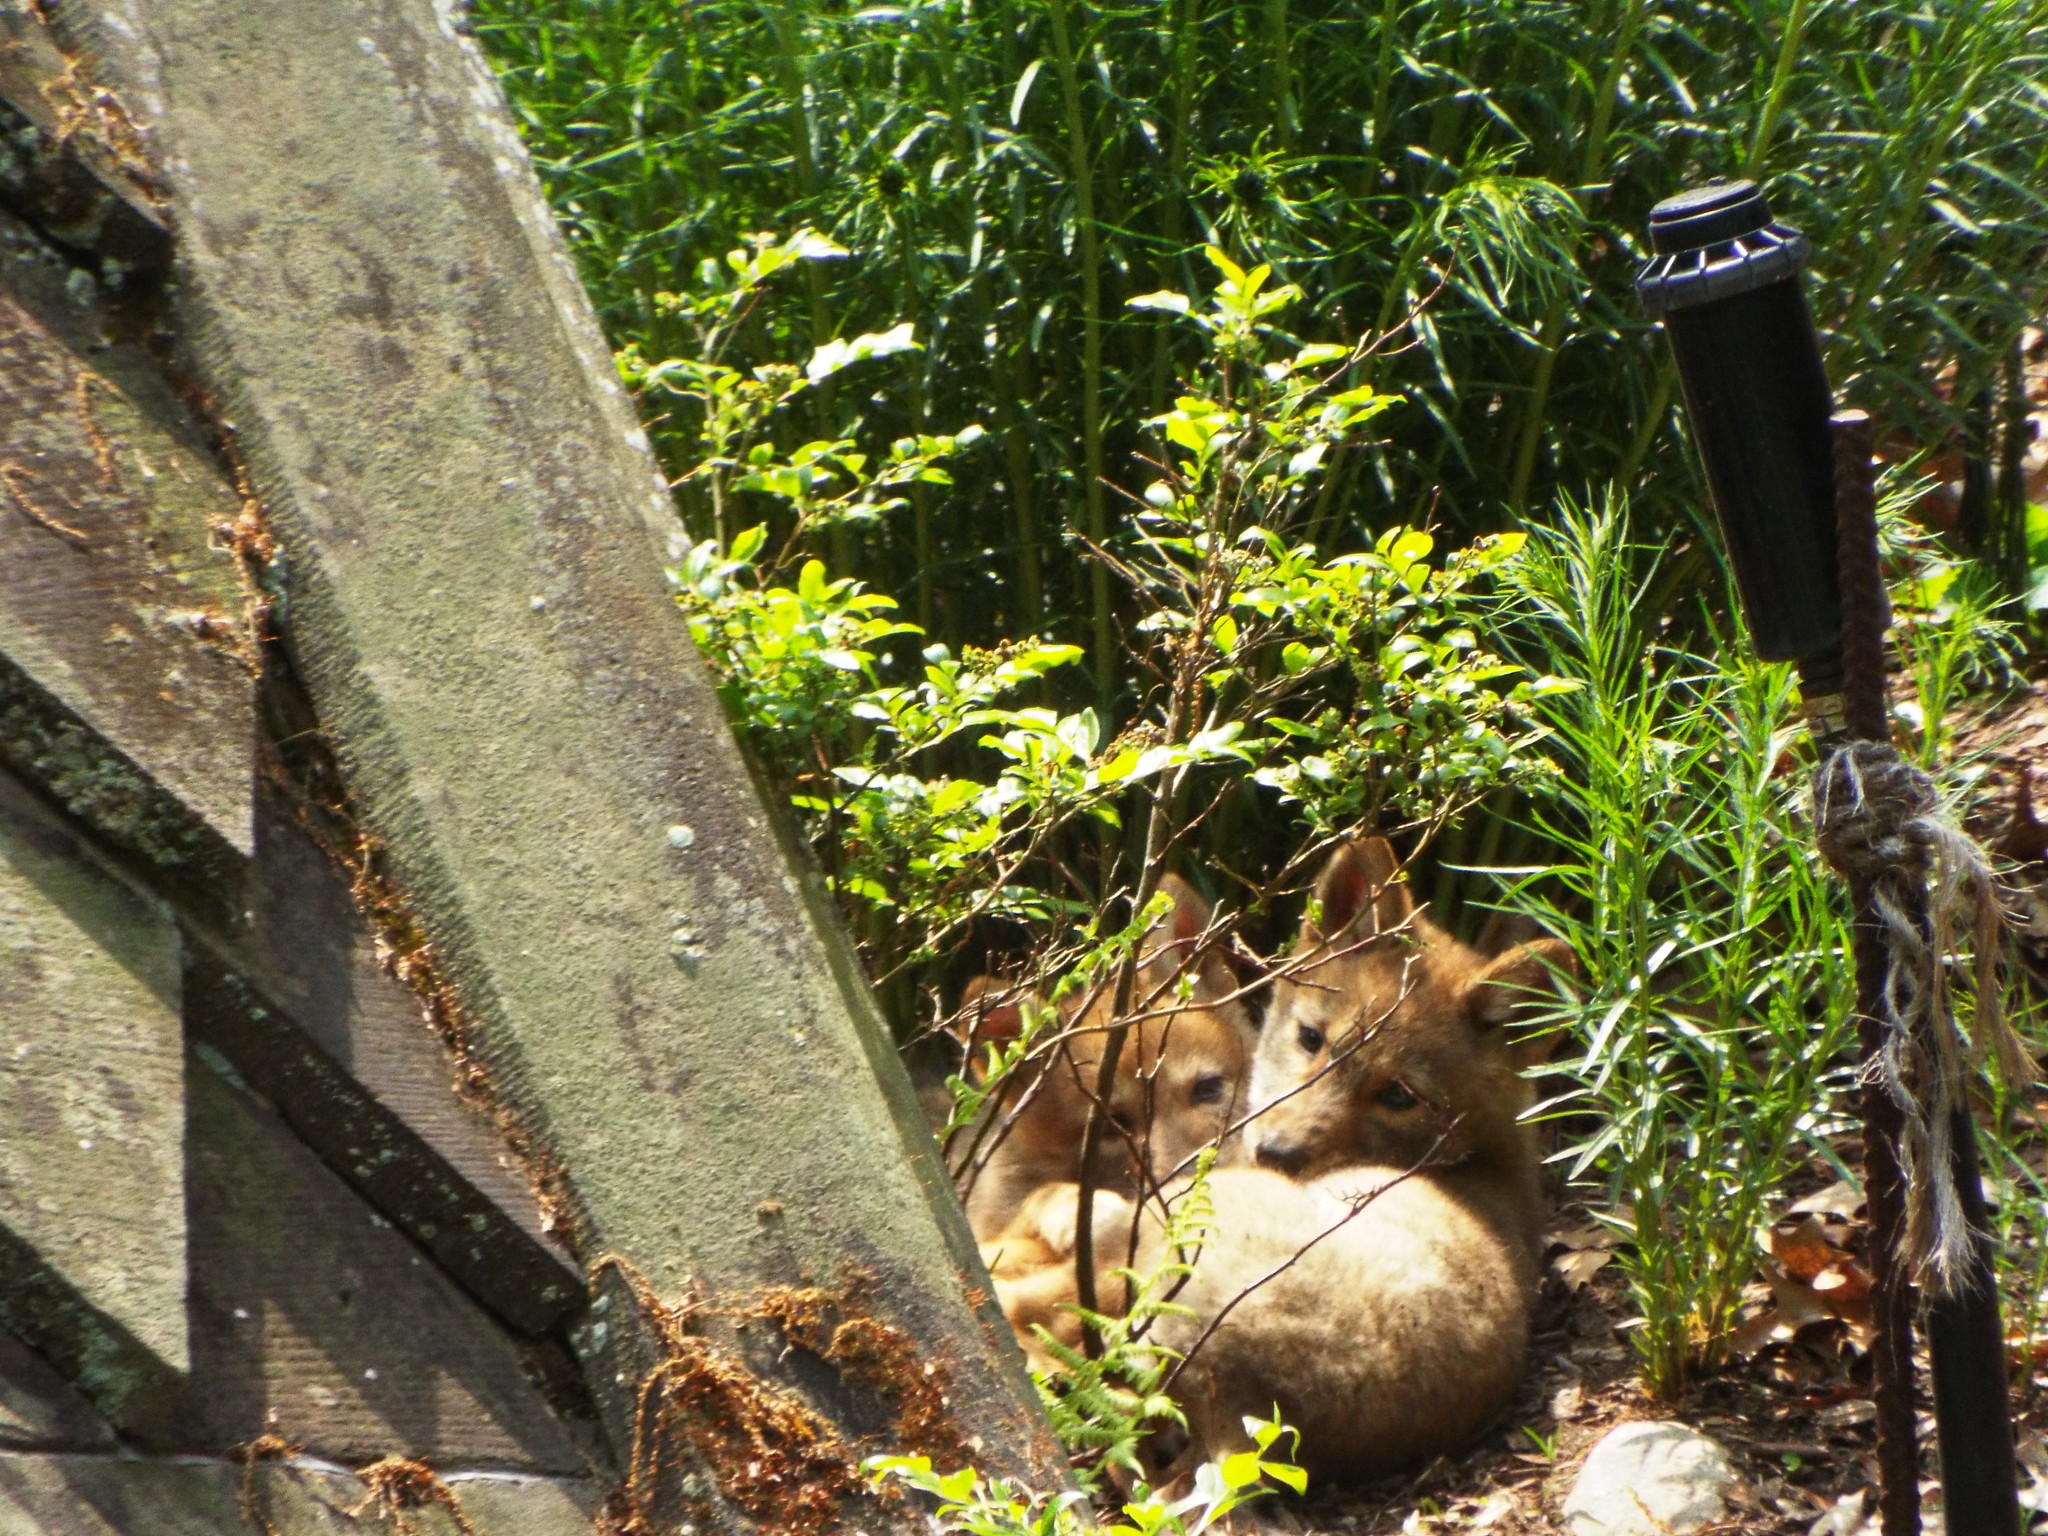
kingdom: Animalia
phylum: Chordata
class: Mammalia
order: Carnivora
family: Canidae
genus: Canis
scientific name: Canis latrans
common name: Coyote
